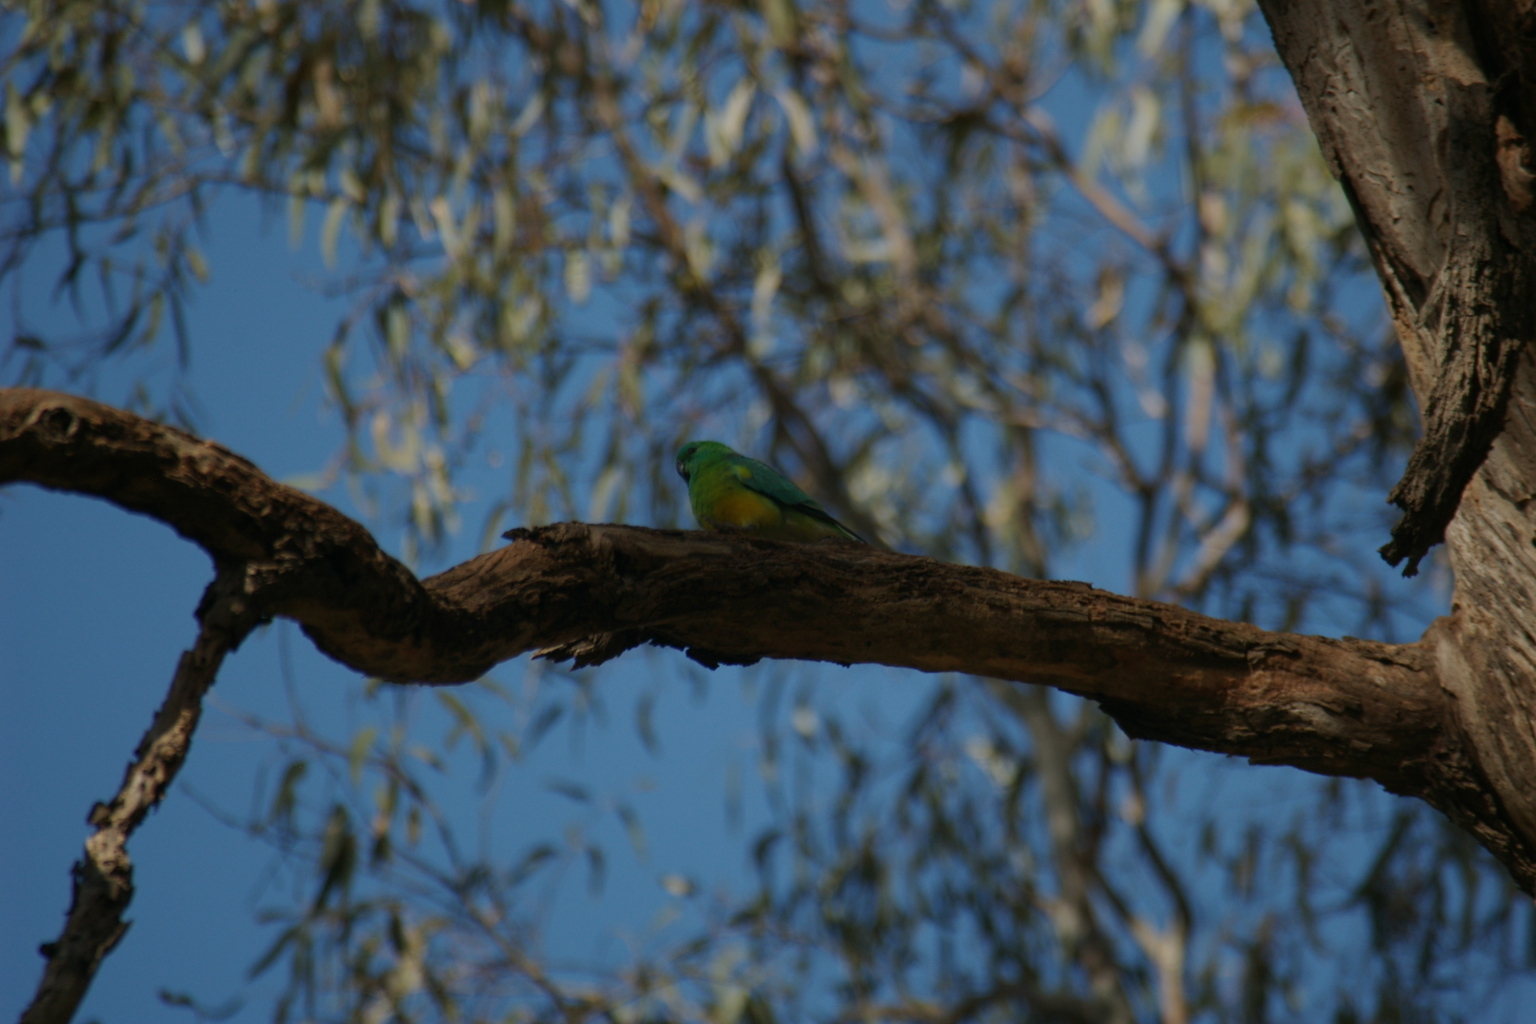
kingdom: Animalia
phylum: Chordata
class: Aves
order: Psittaciformes
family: Psittacidae
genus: Psephotus
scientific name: Psephotus haematonotus
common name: Red-rumped parrot
